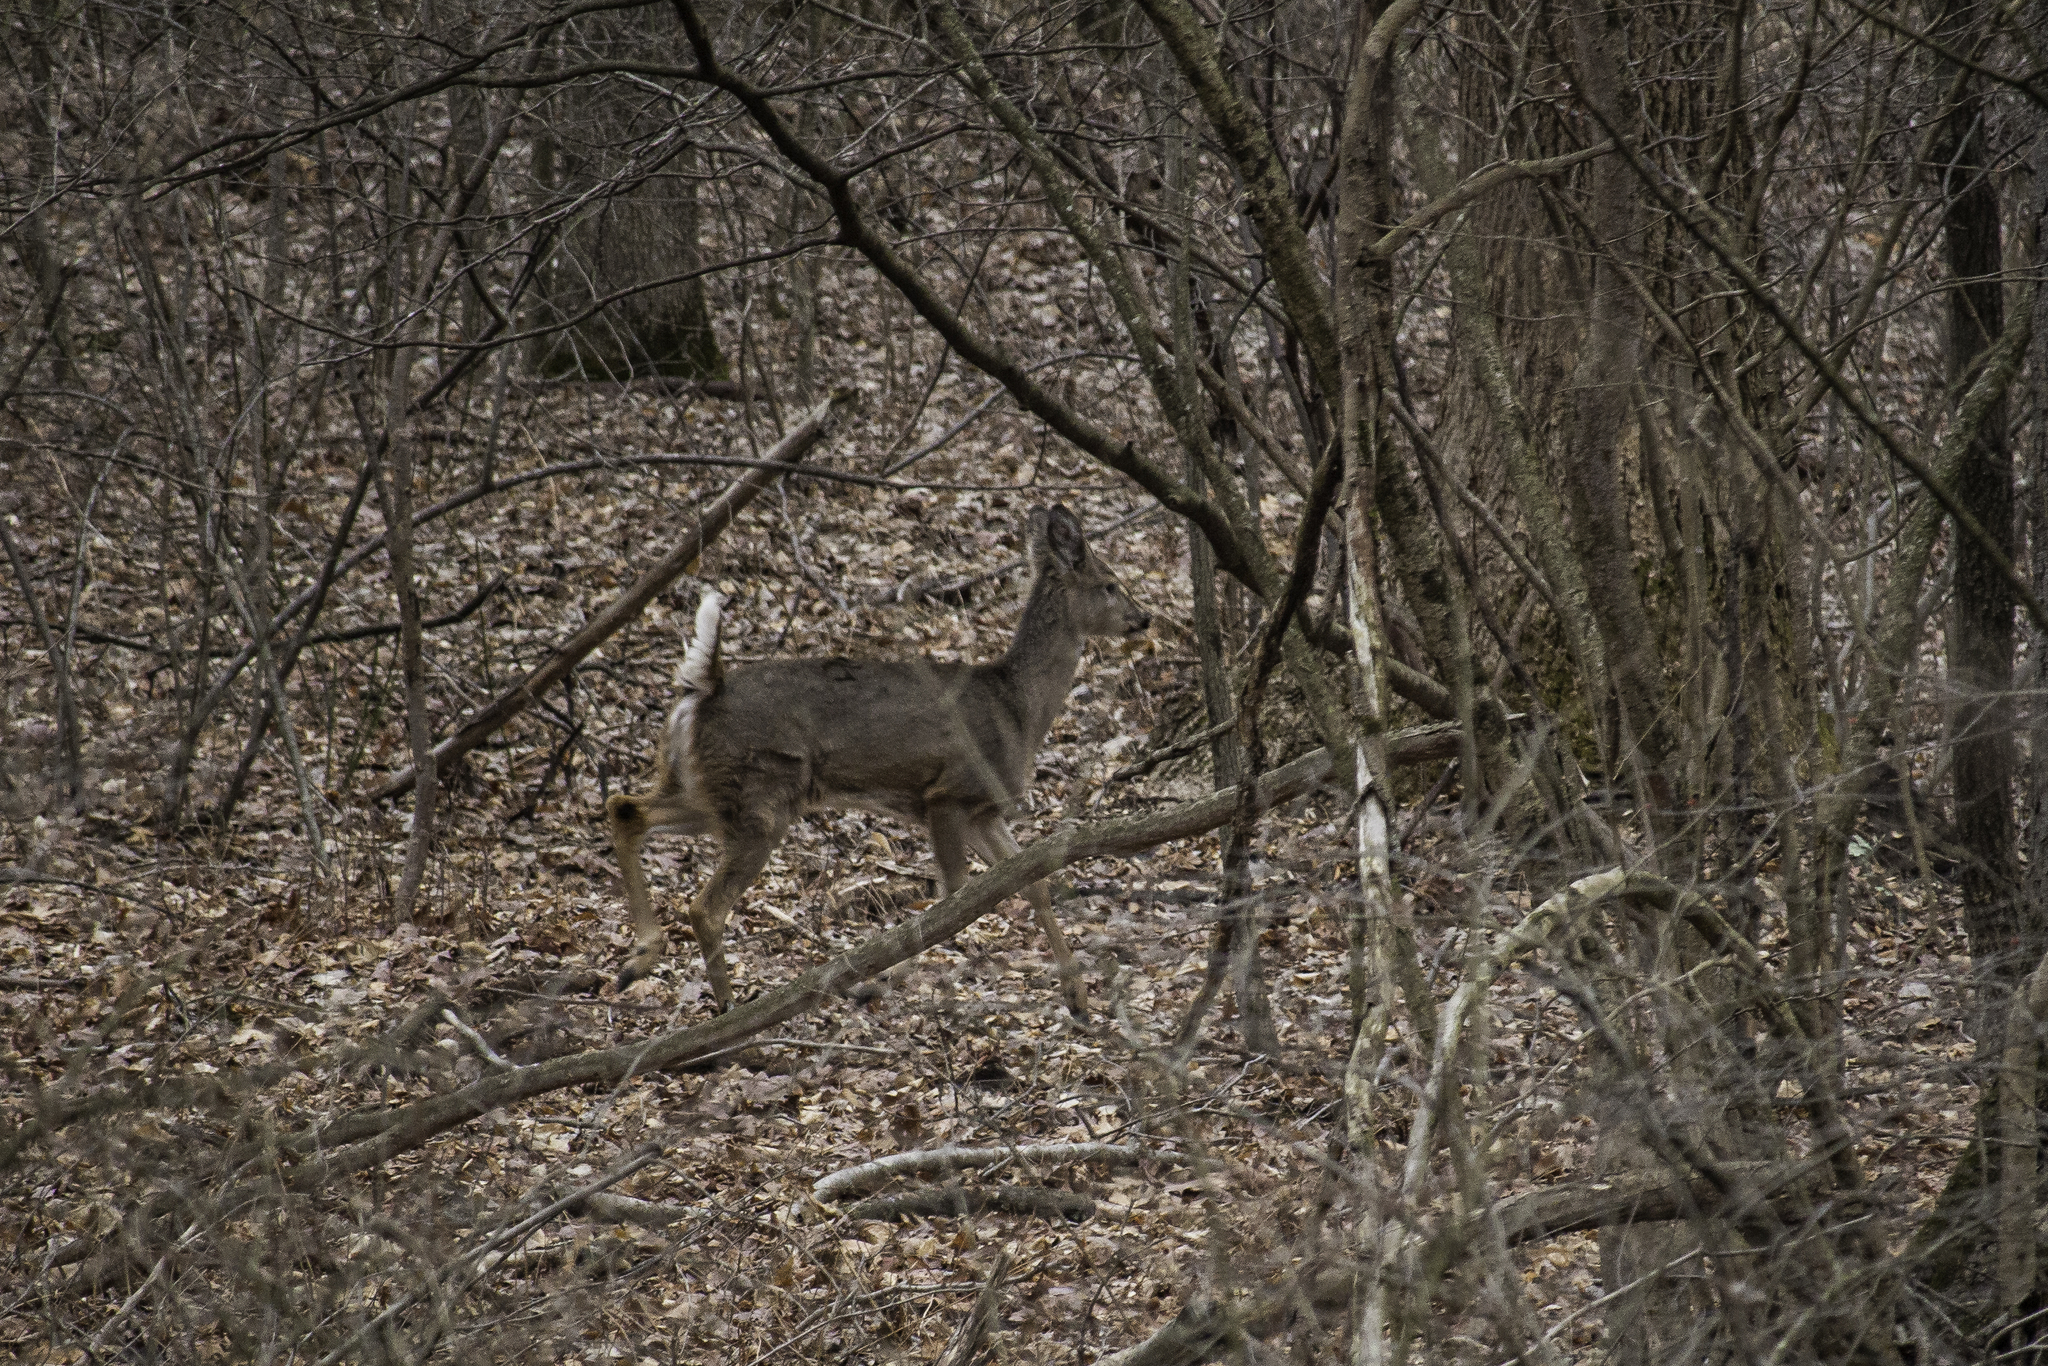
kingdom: Animalia
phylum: Chordata
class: Mammalia
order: Artiodactyla
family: Cervidae
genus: Odocoileus
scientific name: Odocoileus virginianus
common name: White-tailed deer
